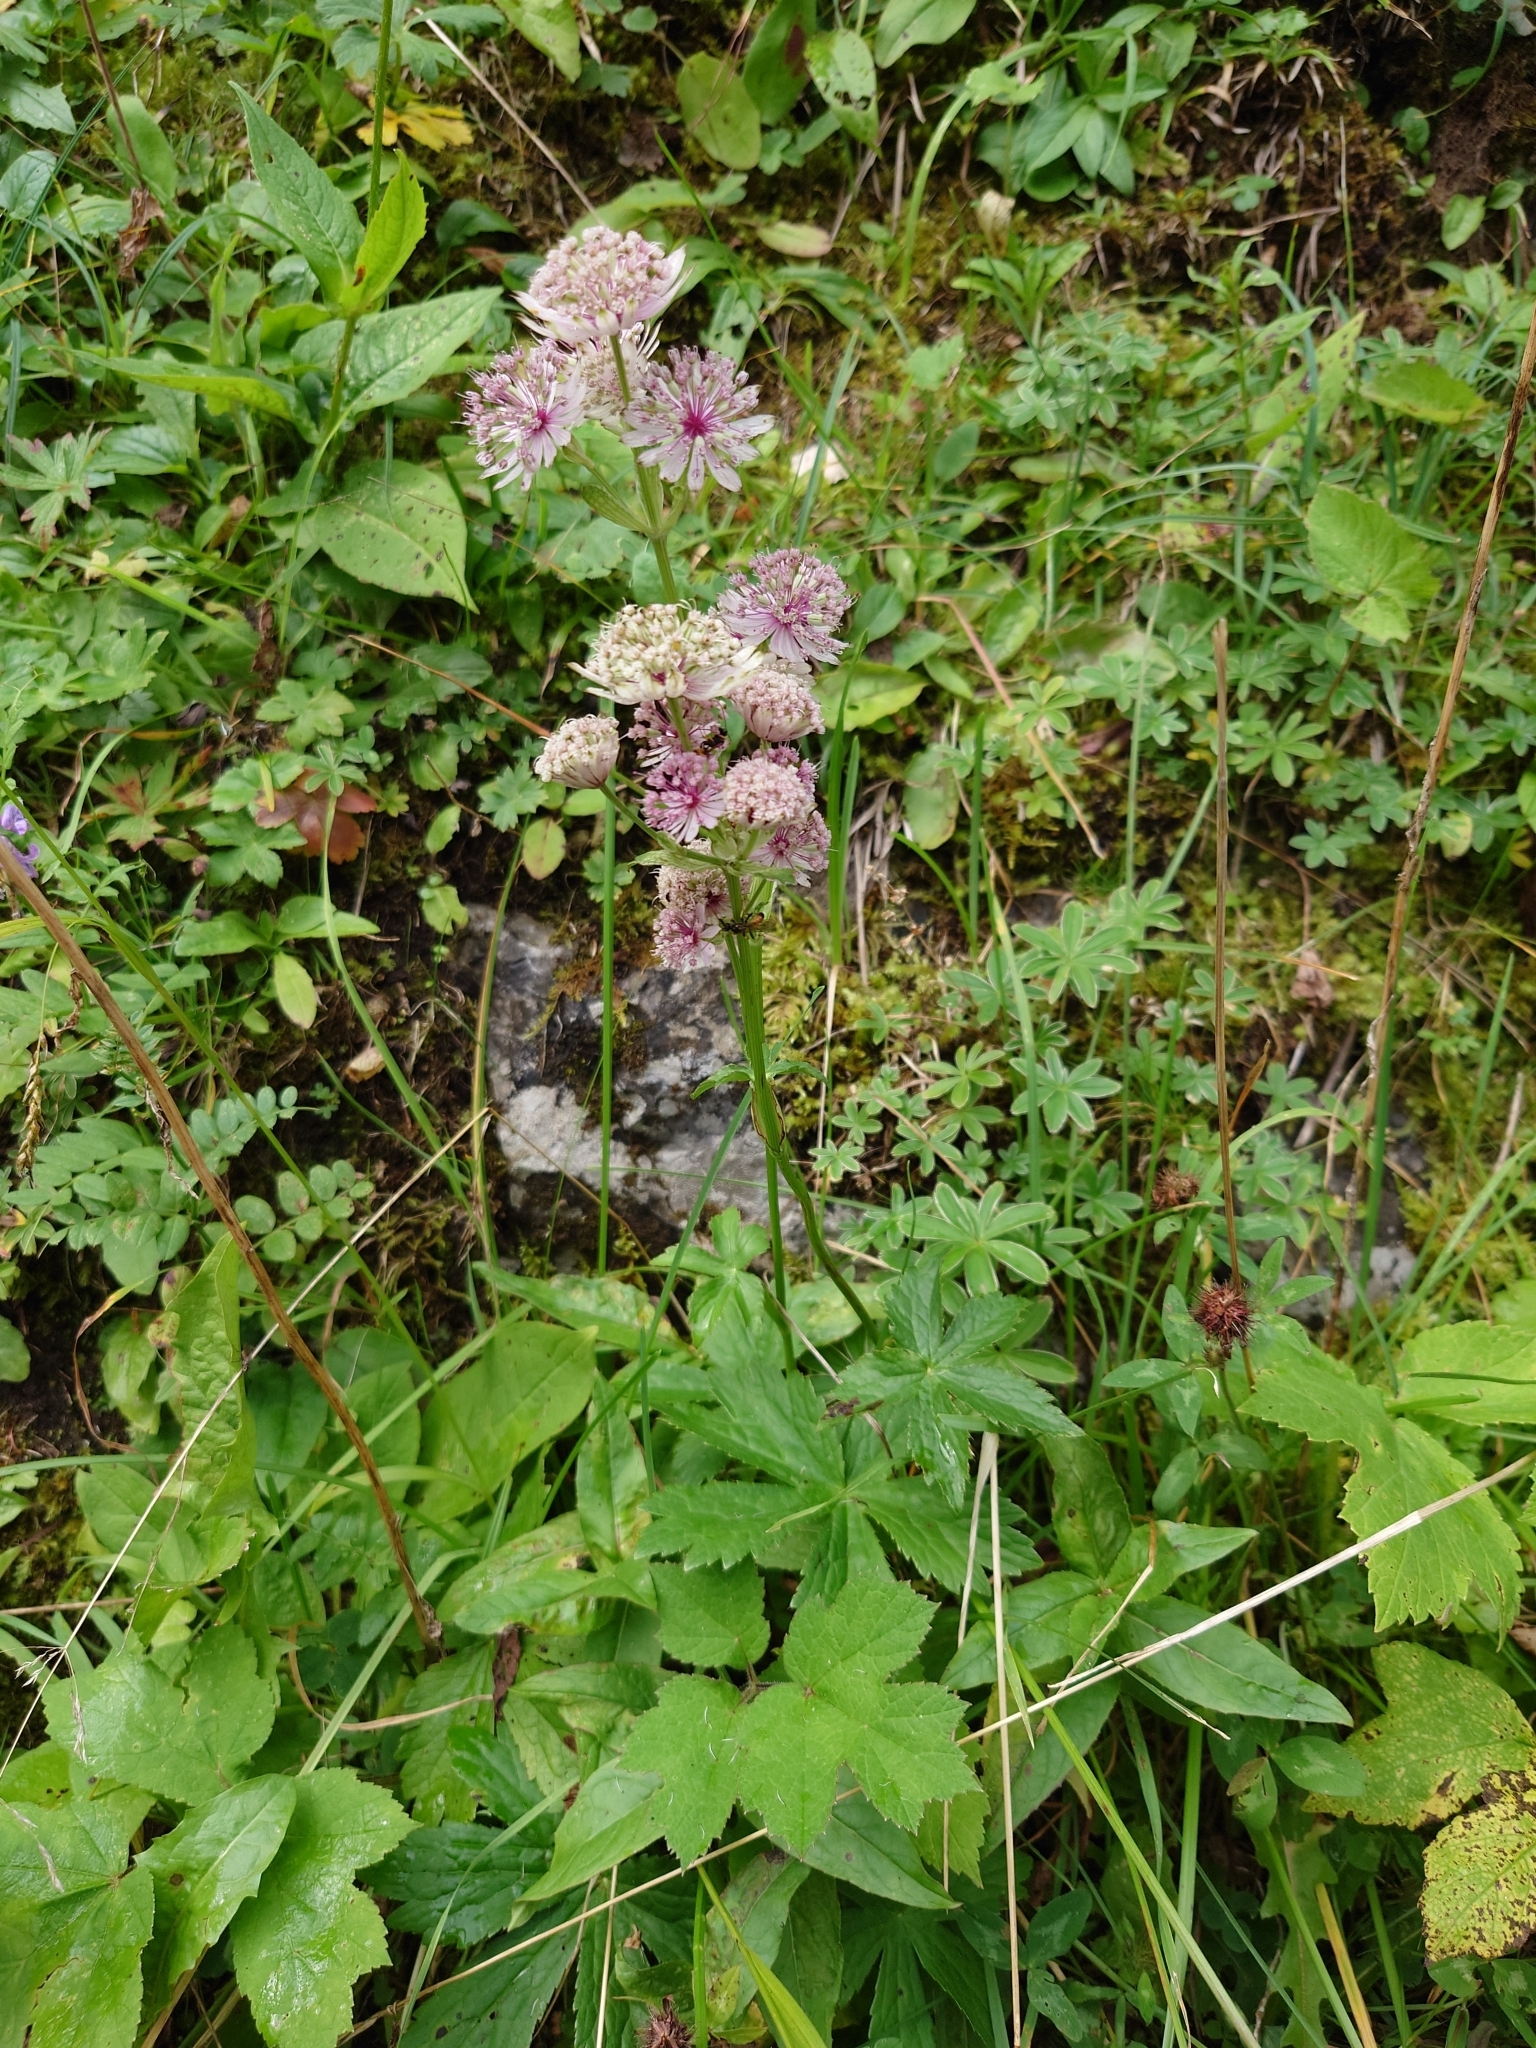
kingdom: Plantae
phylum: Tracheophyta
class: Magnoliopsida
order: Apiales
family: Apiaceae
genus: Astrantia
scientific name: Astrantia major
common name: Greater masterwort
